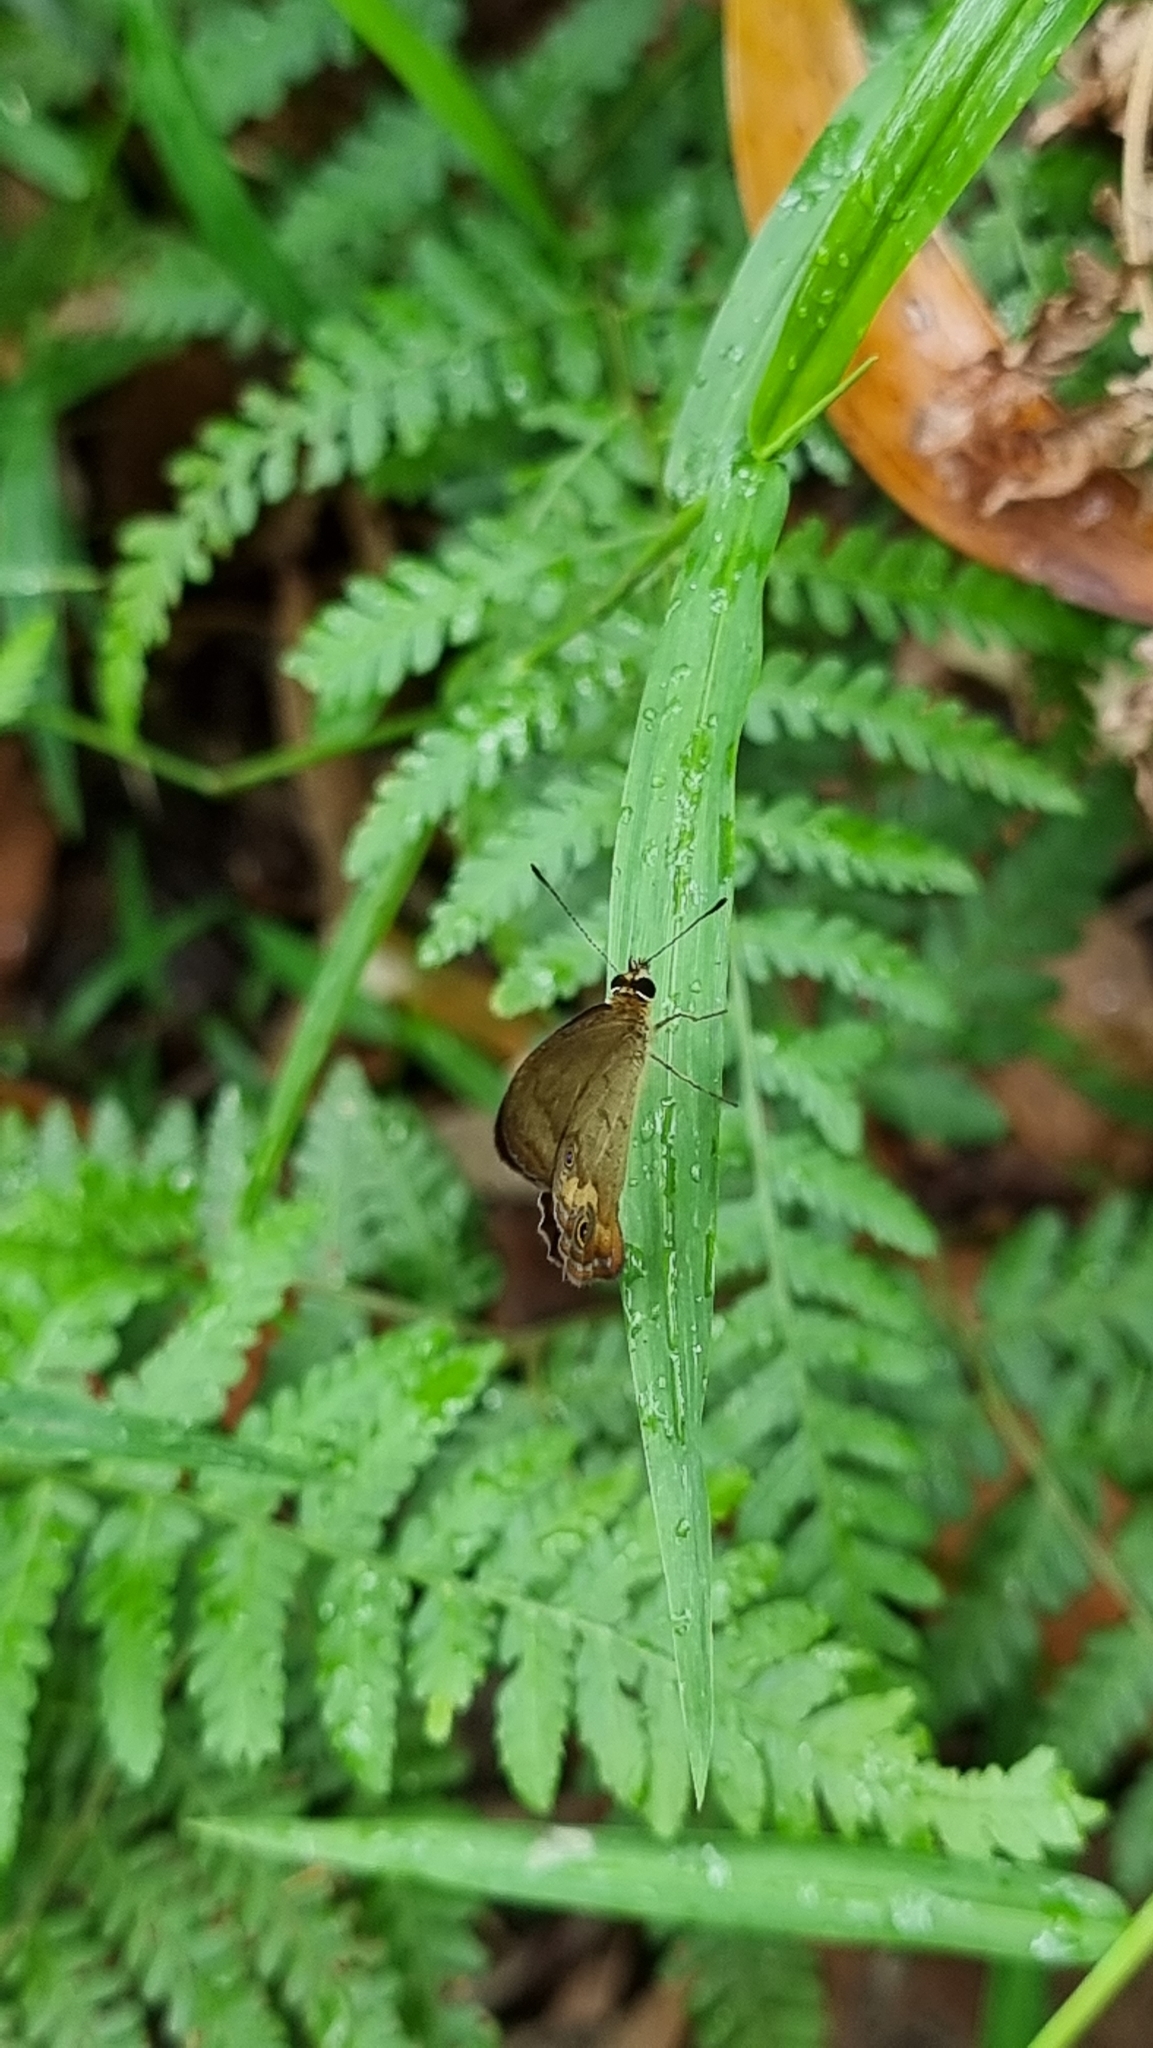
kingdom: Animalia
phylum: Arthropoda
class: Insecta
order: Lepidoptera
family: Nymphalidae
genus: Hypocysta
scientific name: Hypocysta metirius
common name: Brown ringlet
